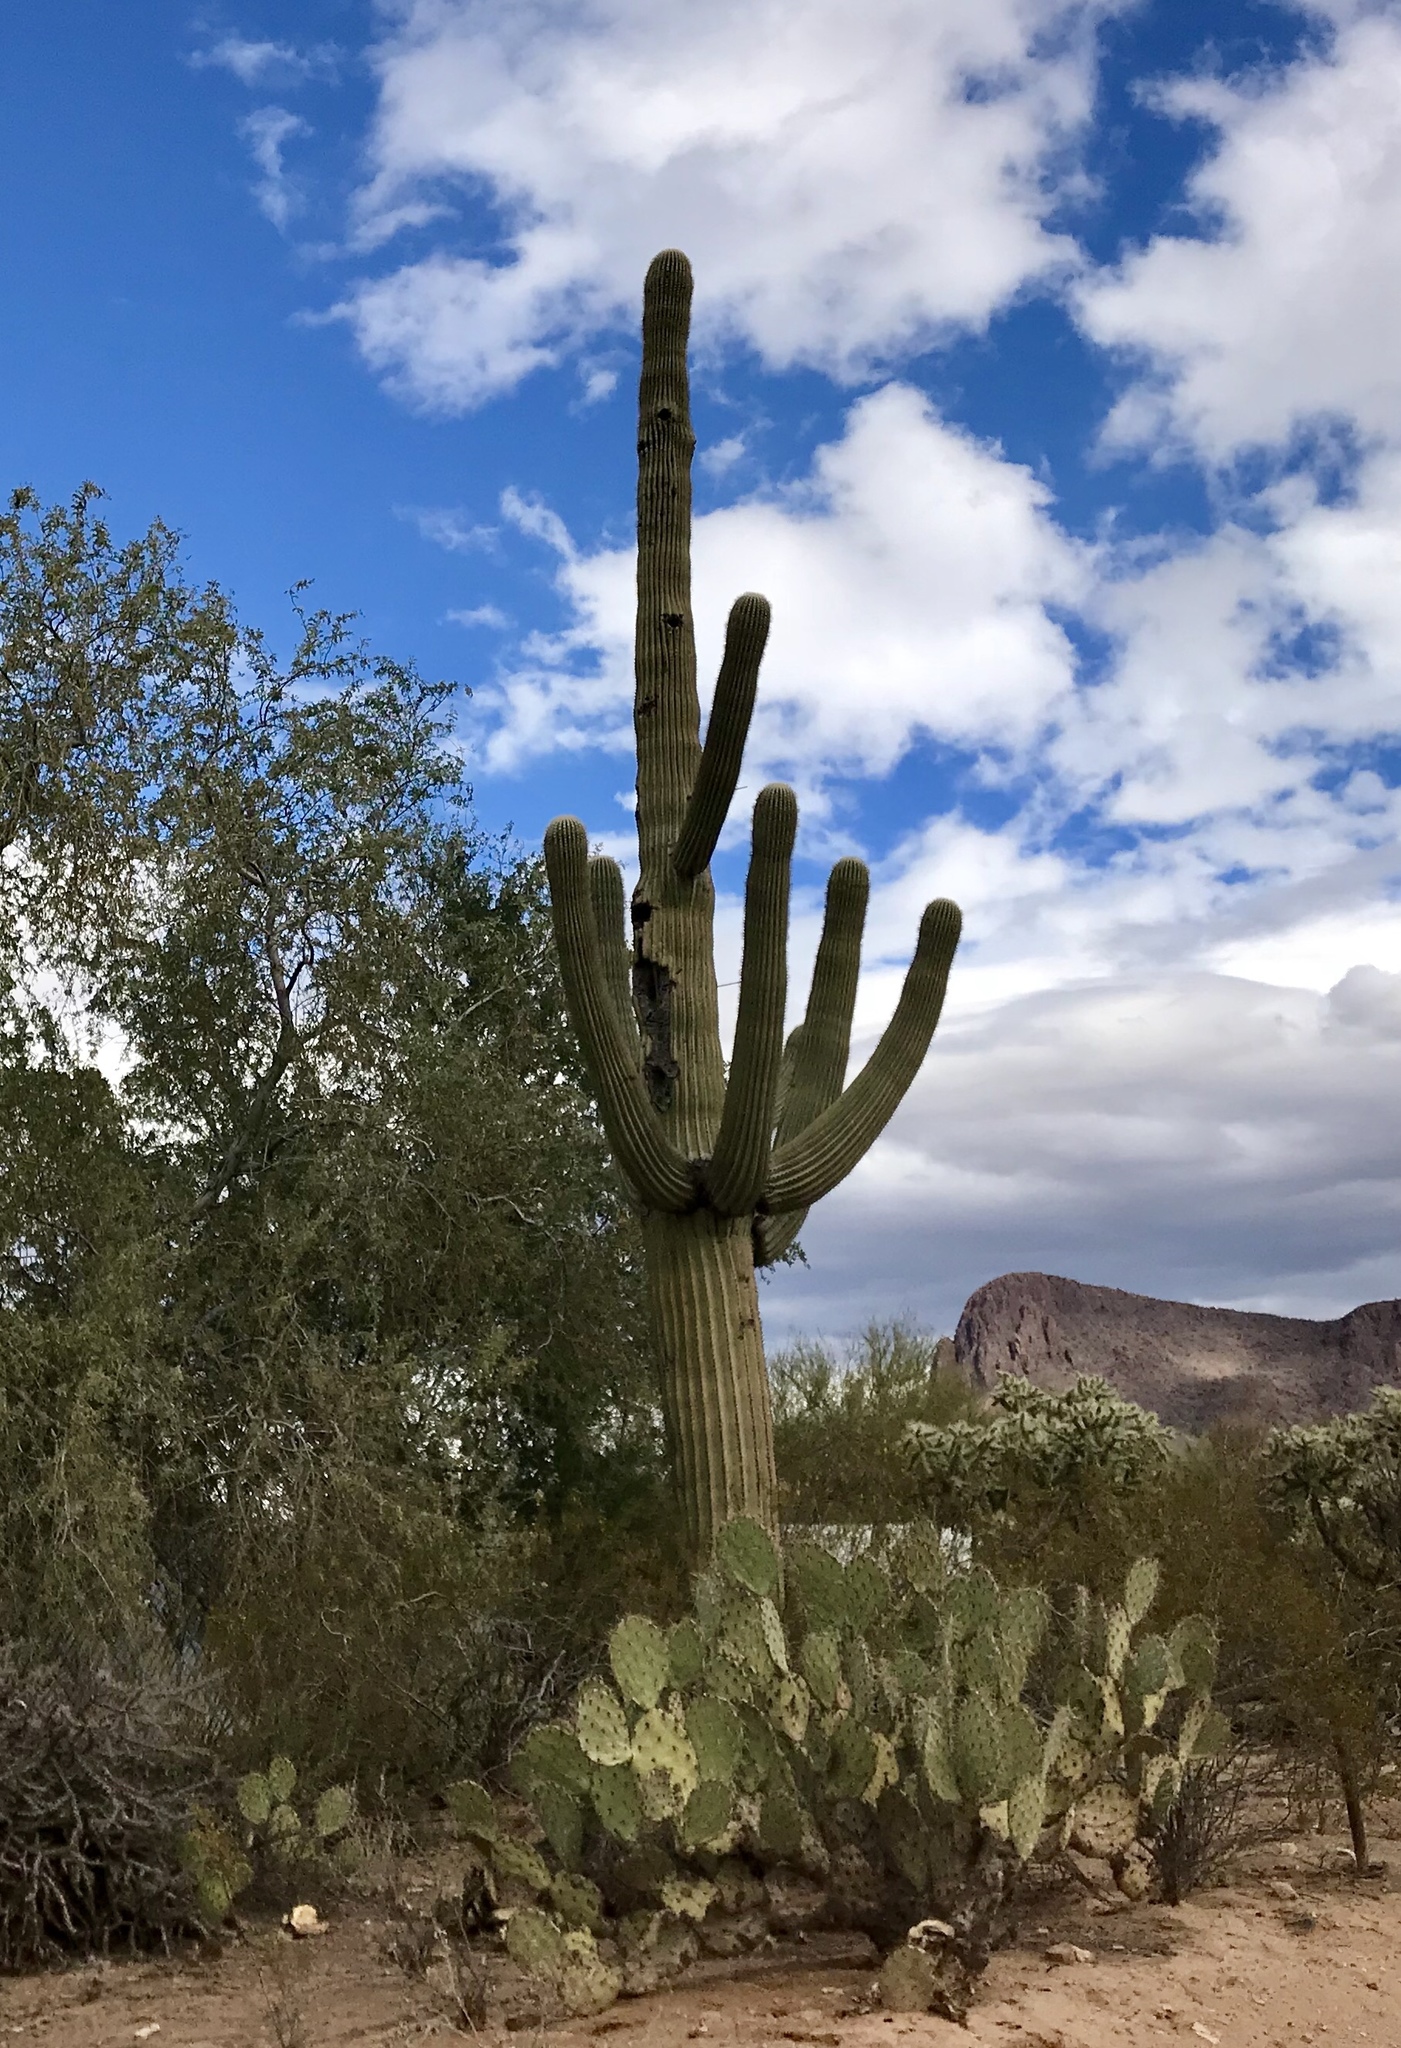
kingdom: Plantae
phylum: Tracheophyta
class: Magnoliopsida
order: Caryophyllales
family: Cactaceae
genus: Carnegiea
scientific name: Carnegiea gigantea
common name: Saguaro
